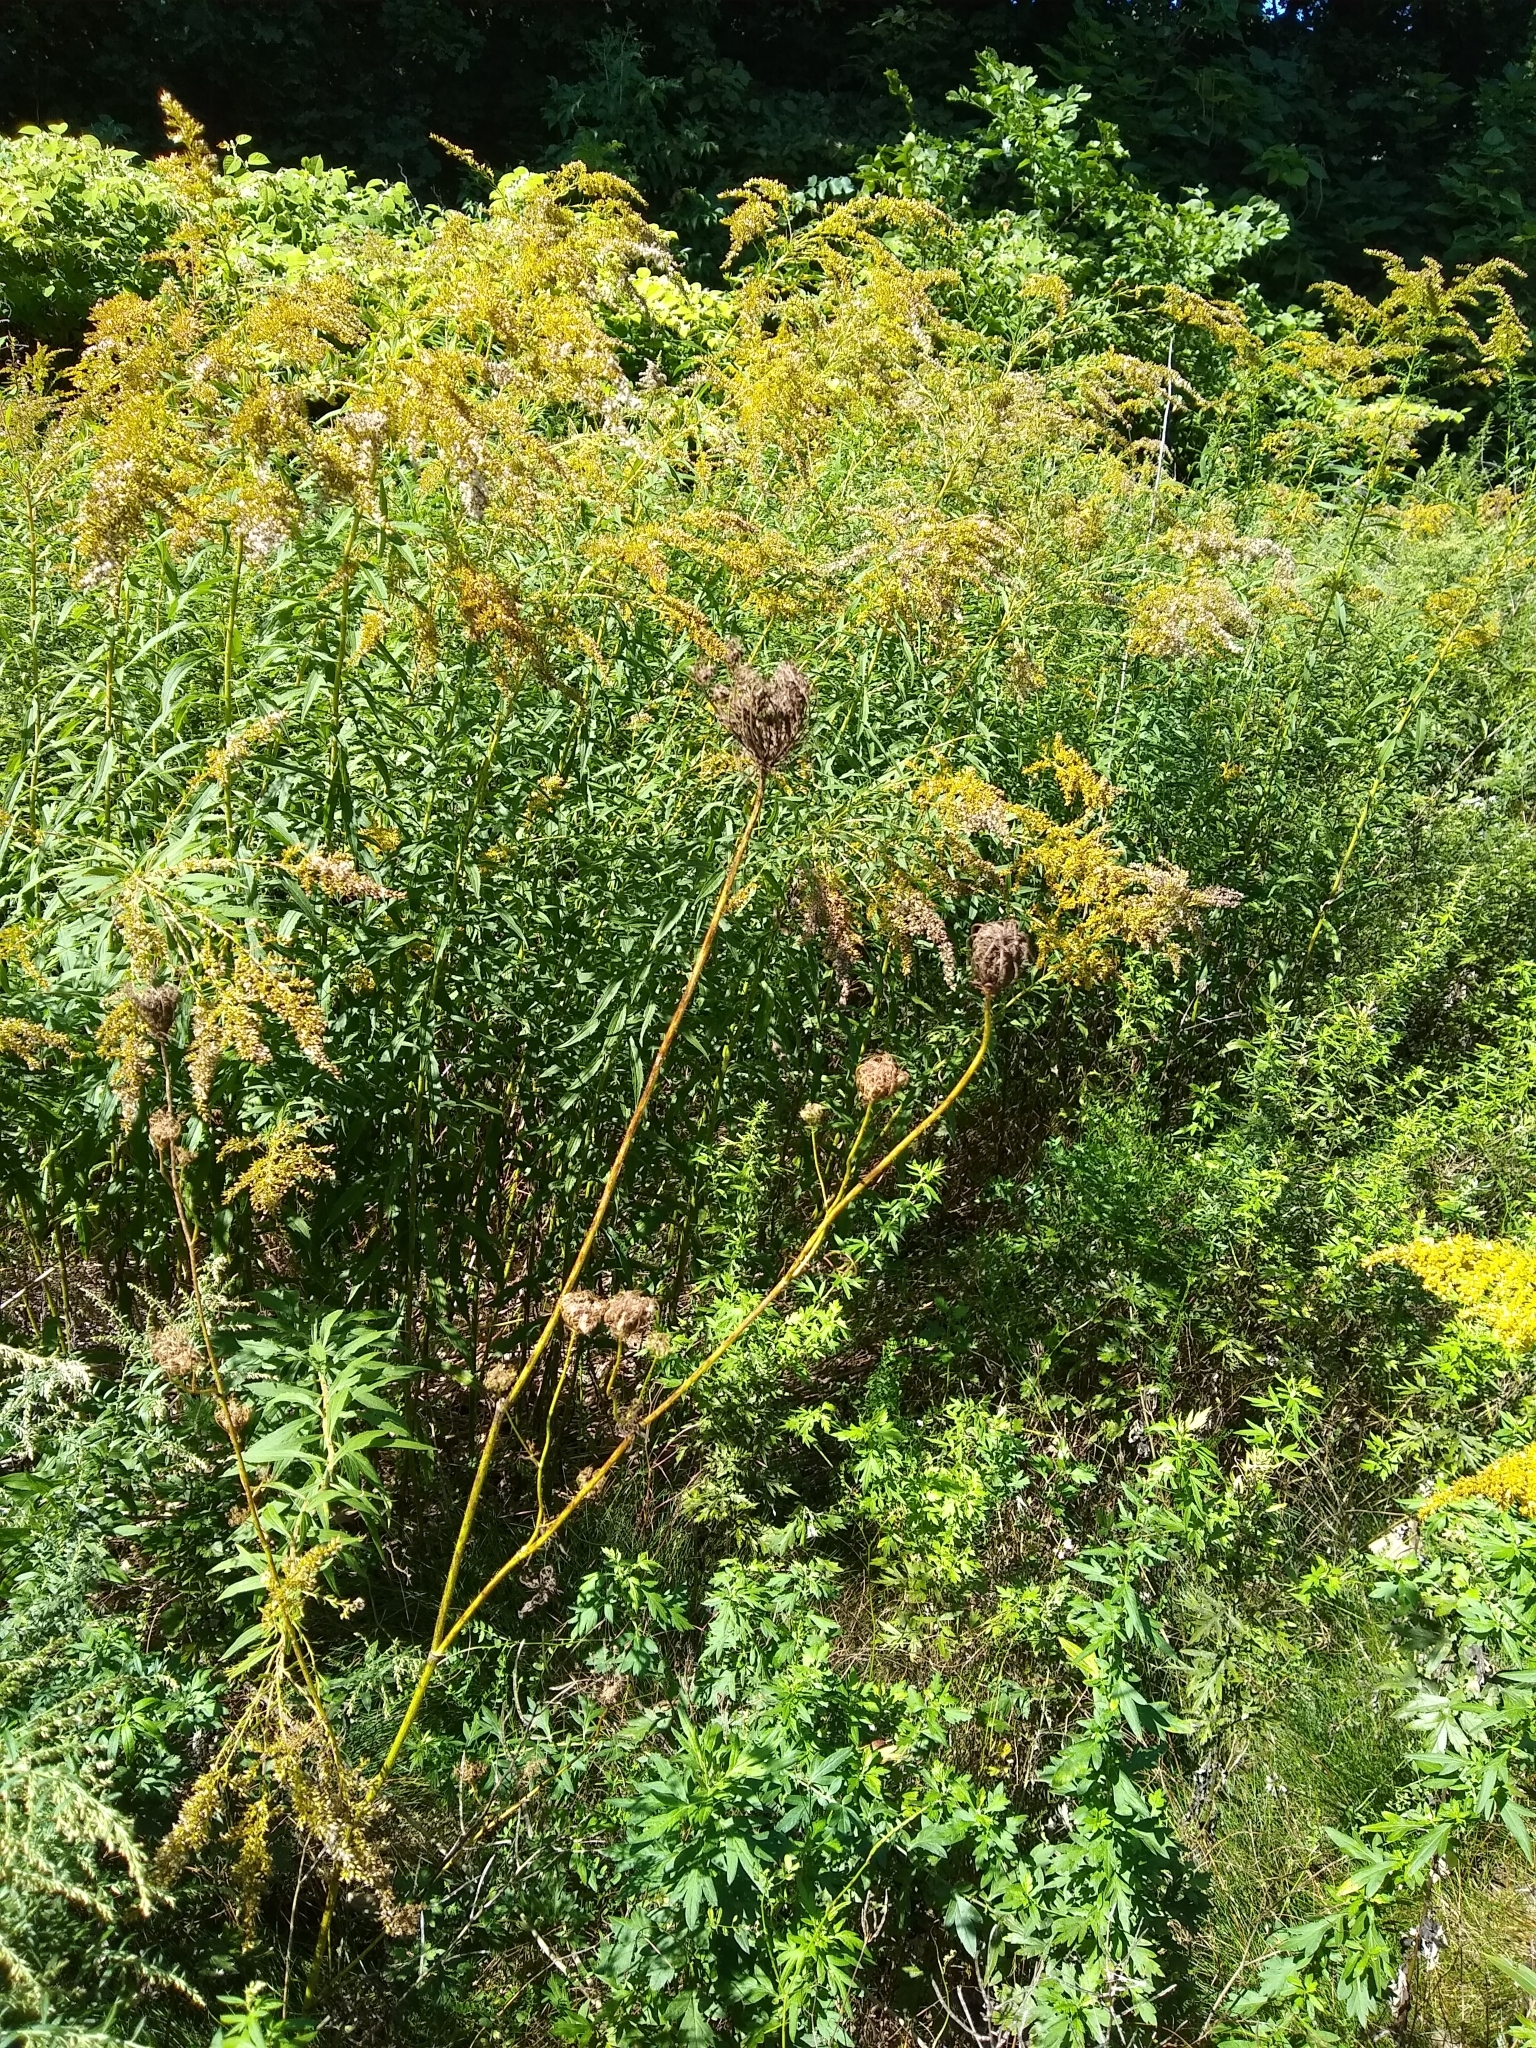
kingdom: Plantae
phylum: Tracheophyta
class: Magnoliopsida
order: Apiales
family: Apiaceae
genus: Daucus
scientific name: Daucus carota
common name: Wild carrot
